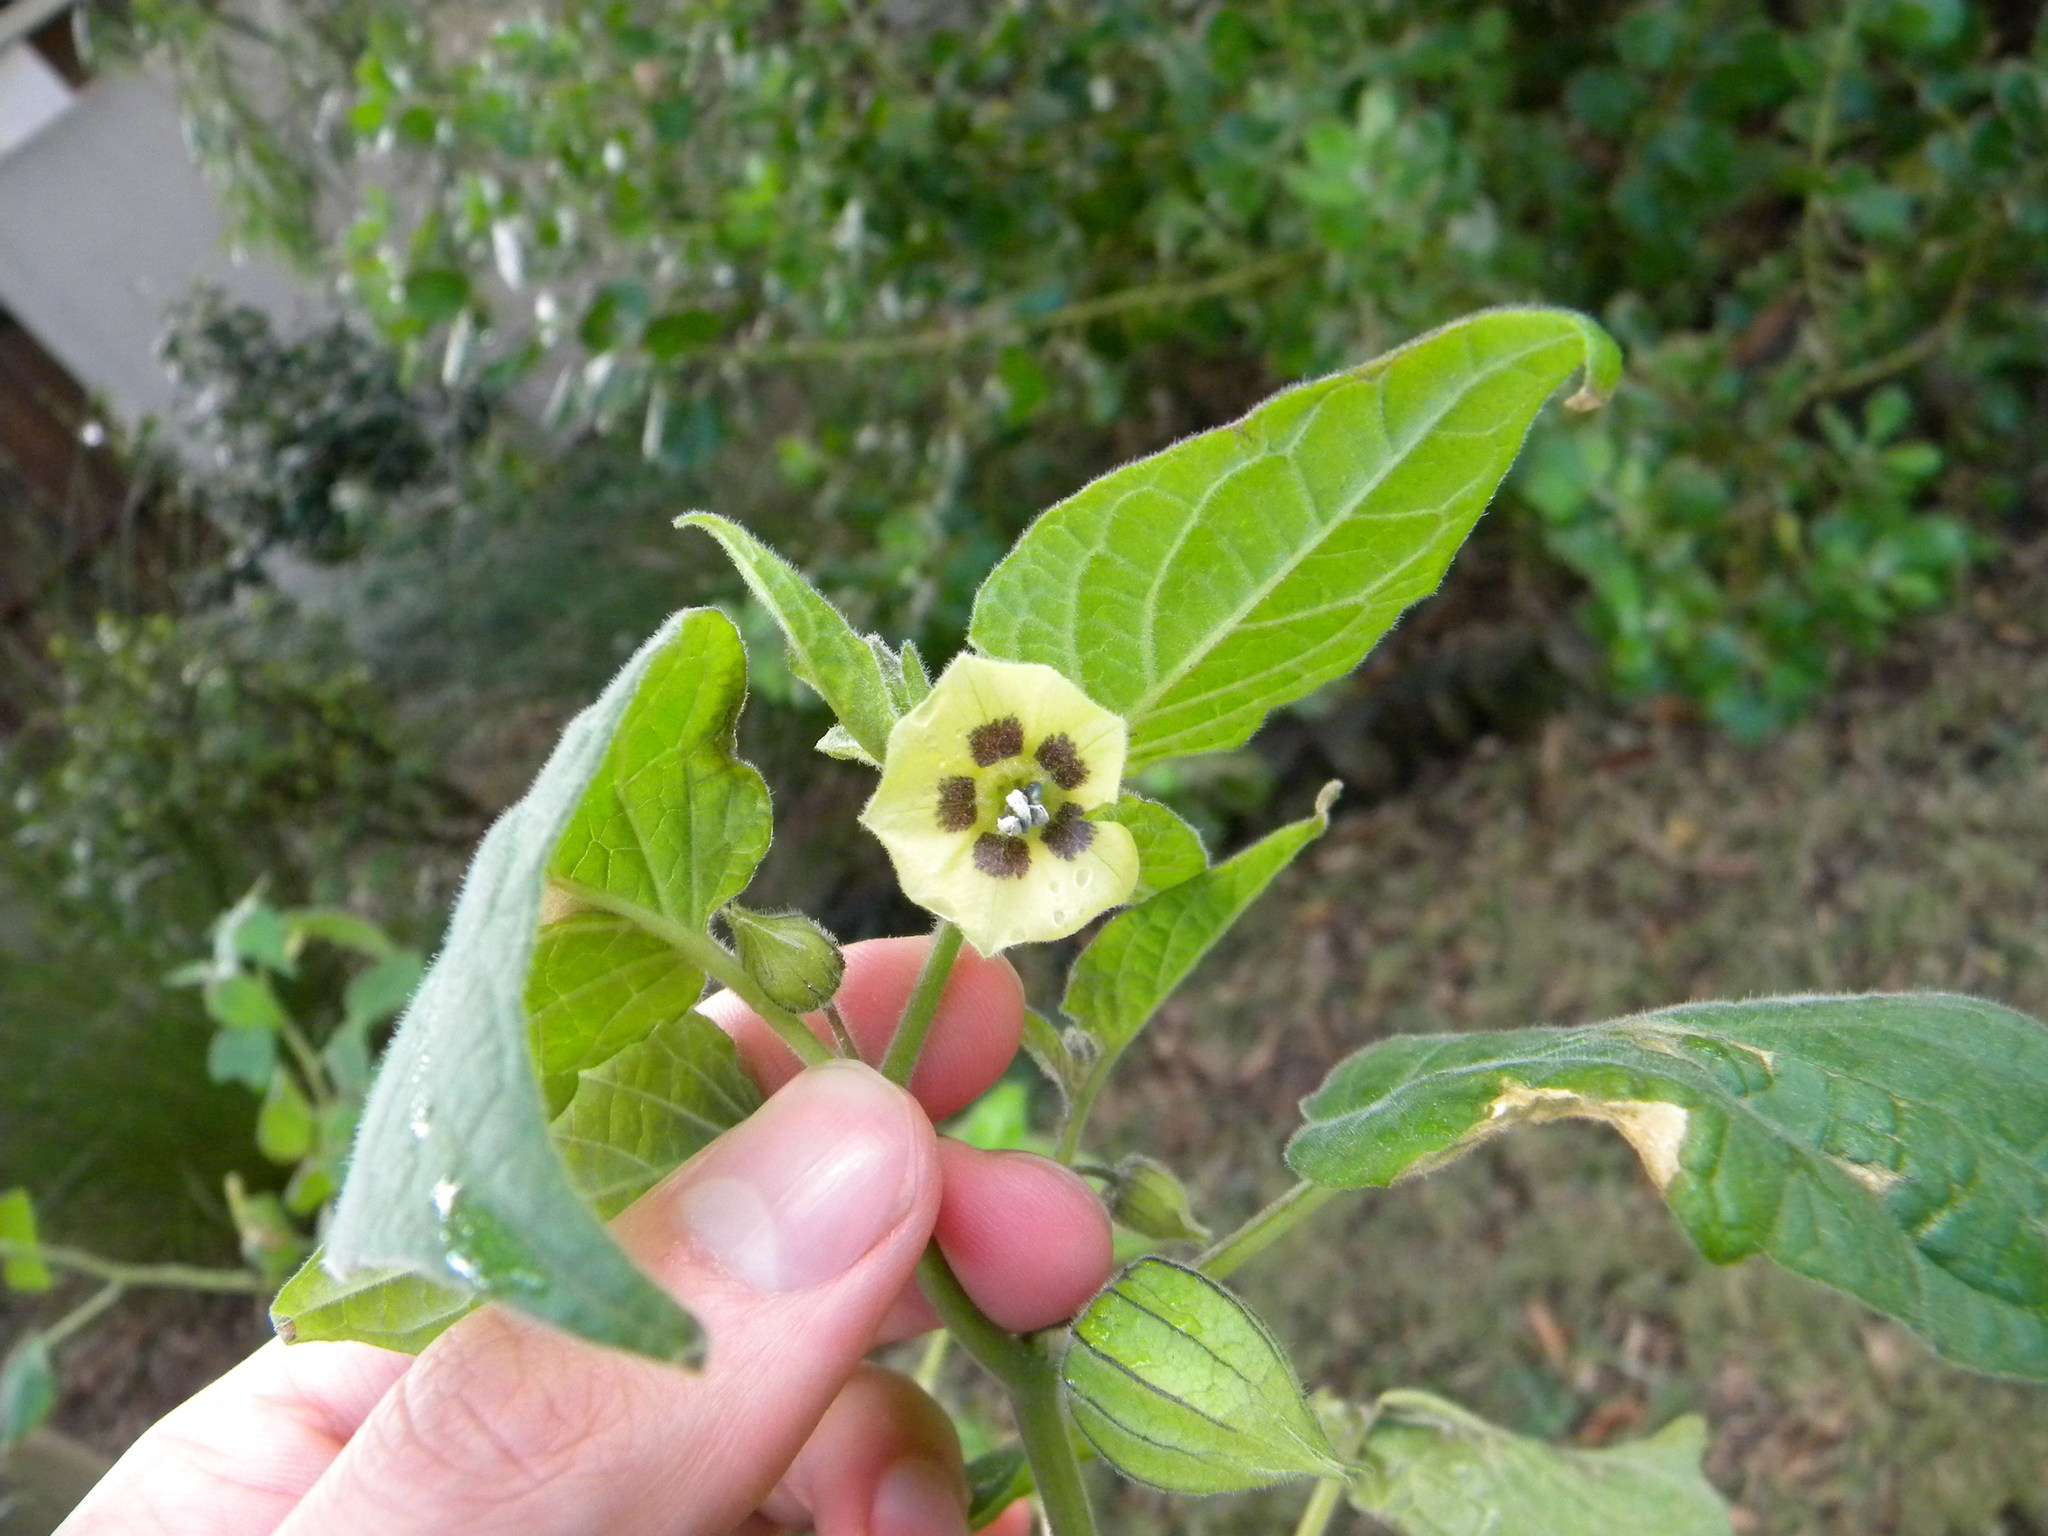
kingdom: Plantae
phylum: Tracheophyta
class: Magnoliopsida
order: Solanales
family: Solanaceae
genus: Physalis
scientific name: Physalis peruviana
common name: Cape-gooseberry
